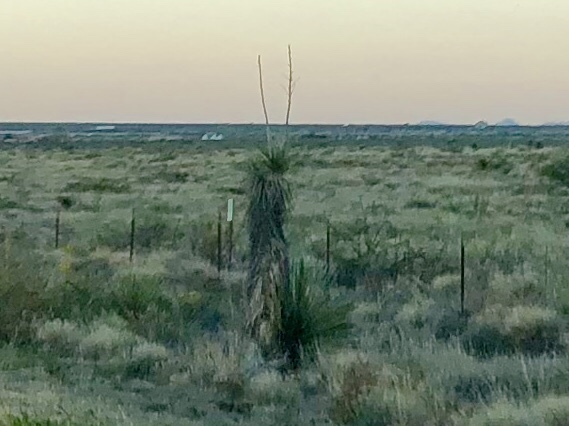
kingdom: Plantae
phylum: Tracheophyta
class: Liliopsida
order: Asparagales
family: Asparagaceae
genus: Yucca
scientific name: Yucca elata
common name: Palmella
